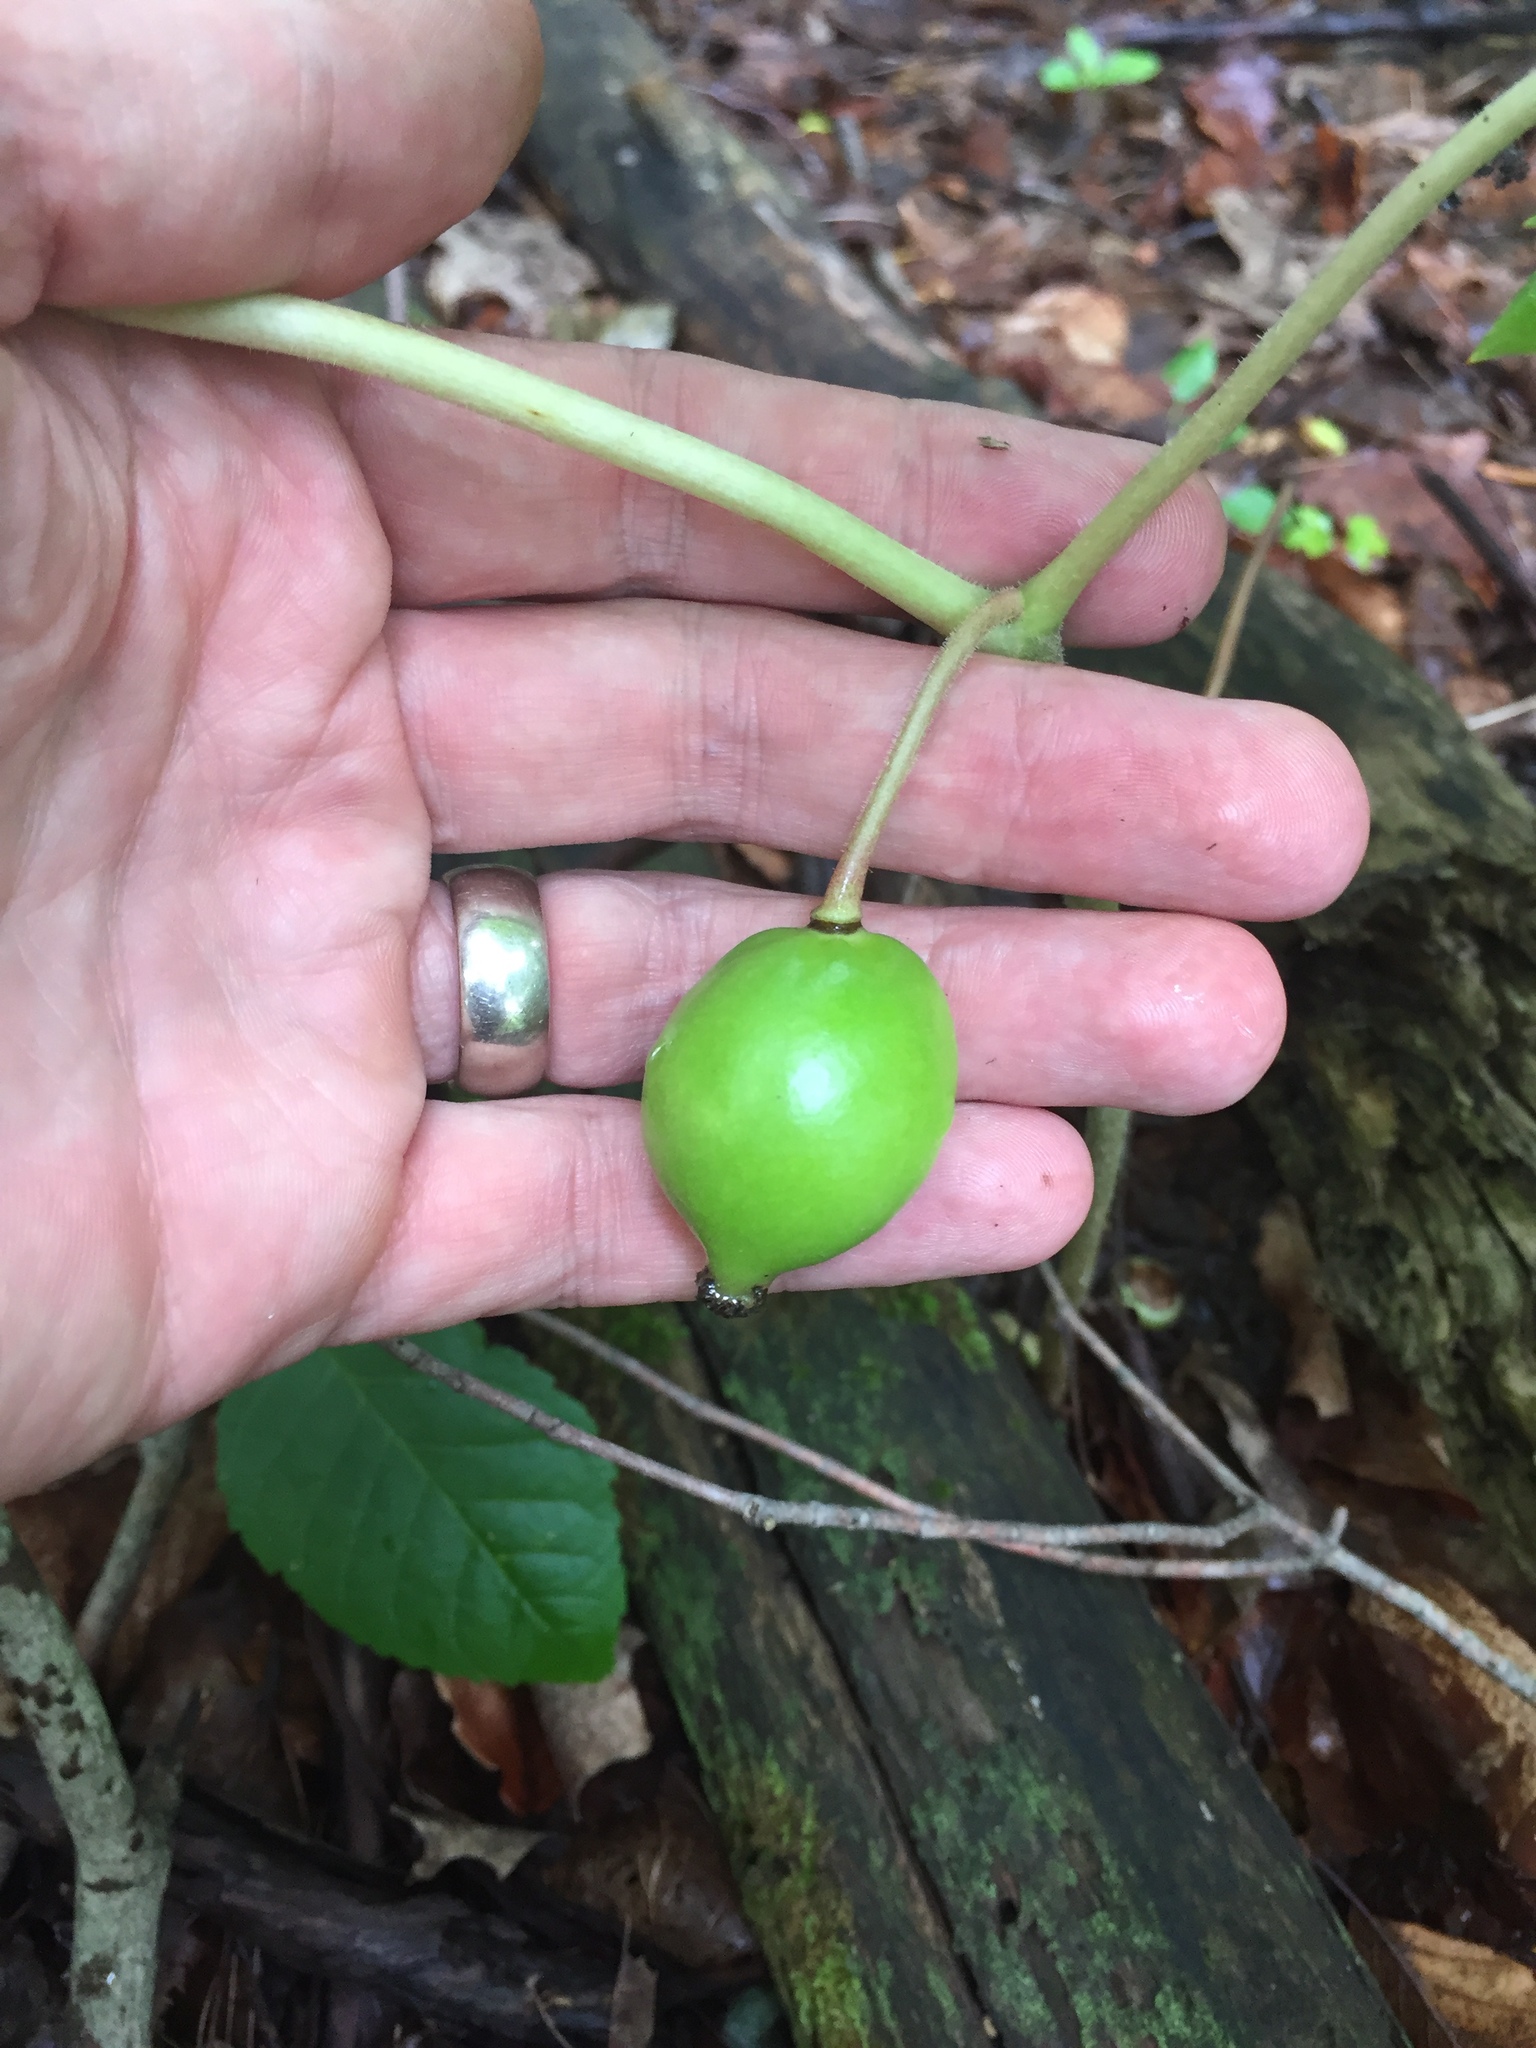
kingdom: Plantae
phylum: Tracheophyta
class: Magnoliopsida
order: Ranunculales
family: Berberidaceae
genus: Podophyllum
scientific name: Podophyllum peltatum
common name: Wild mandrake
